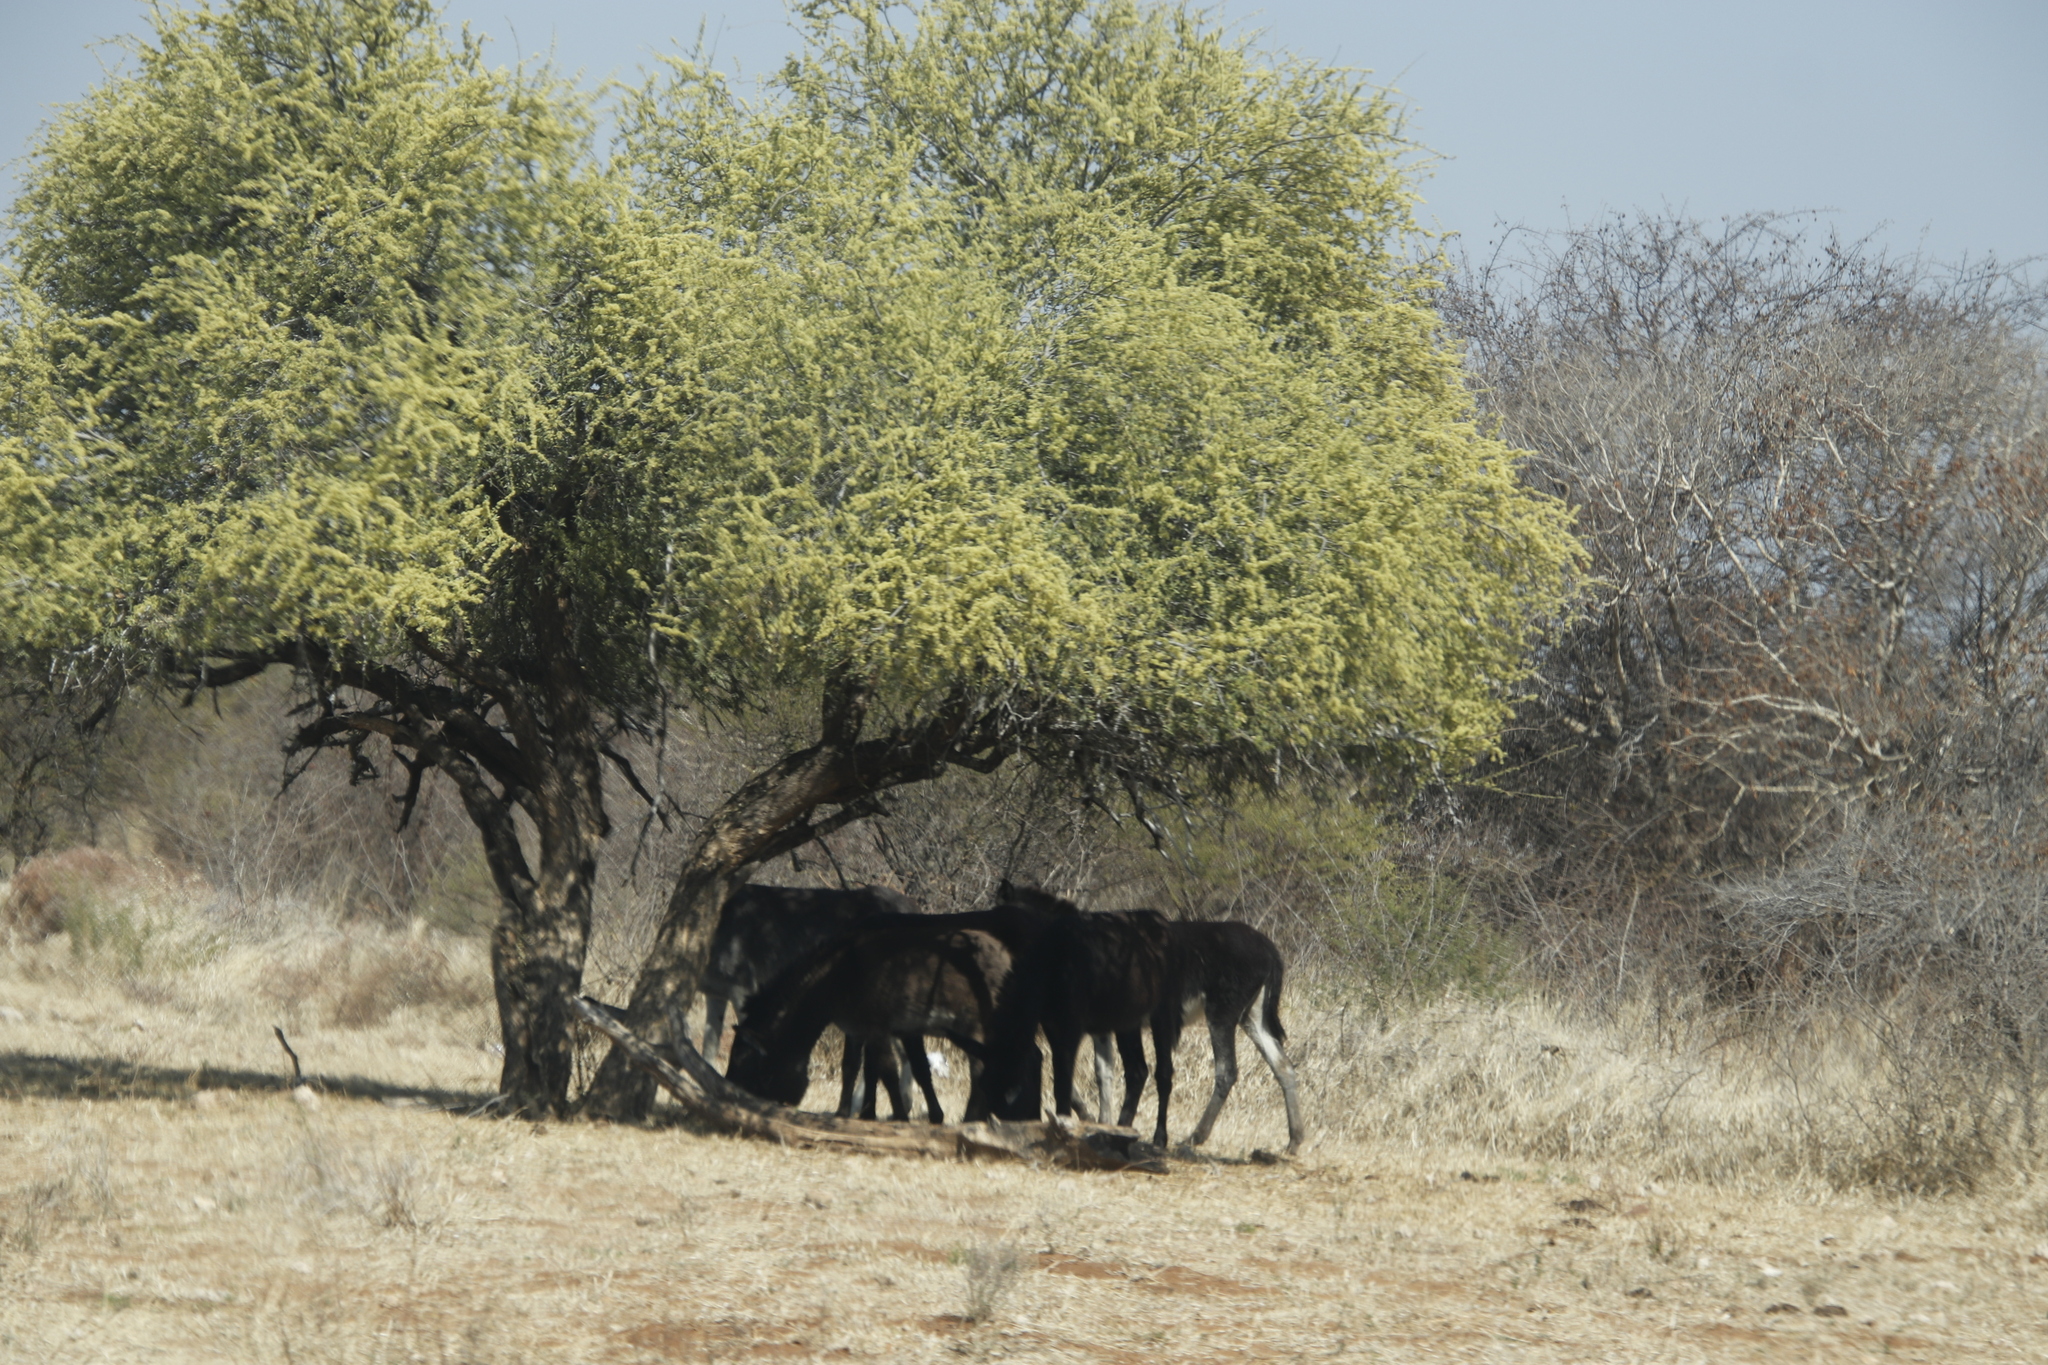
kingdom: Plantae
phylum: Tracheophyta
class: Magnoliopsida
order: Brassicales
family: Capparaceae
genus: Boscia
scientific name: Boscia albitrunca
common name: Caper bush
